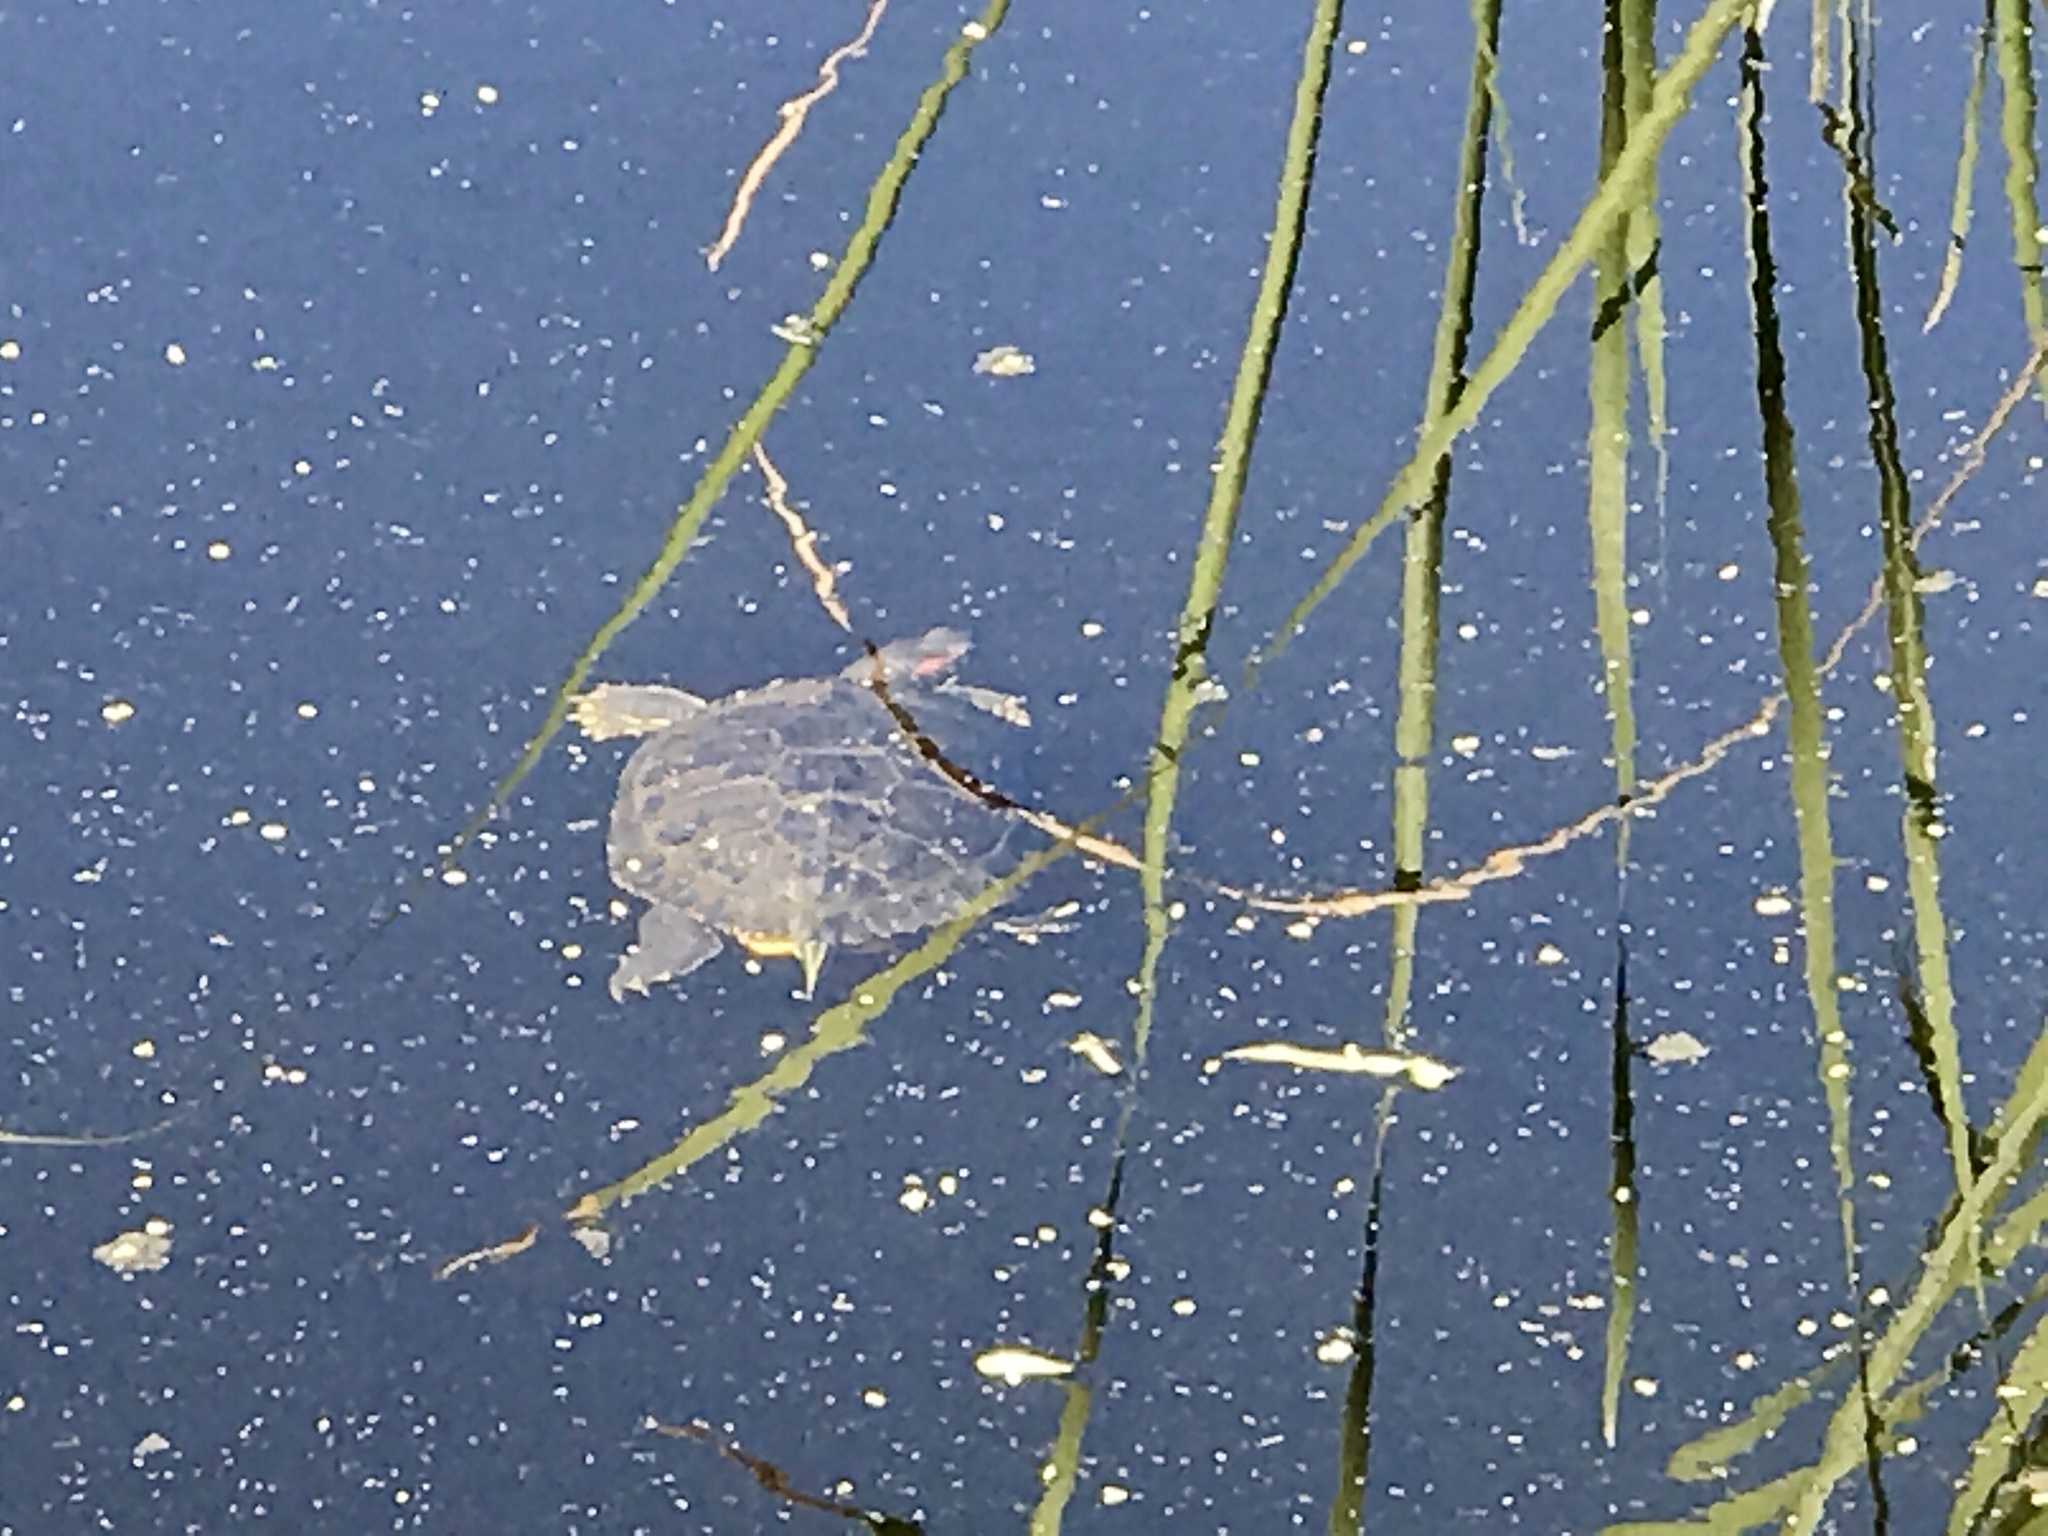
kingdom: Animalia
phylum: Chordata
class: Testudines
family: Emydidae
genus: Trachemys
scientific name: Trachemys scripta
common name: Slider
